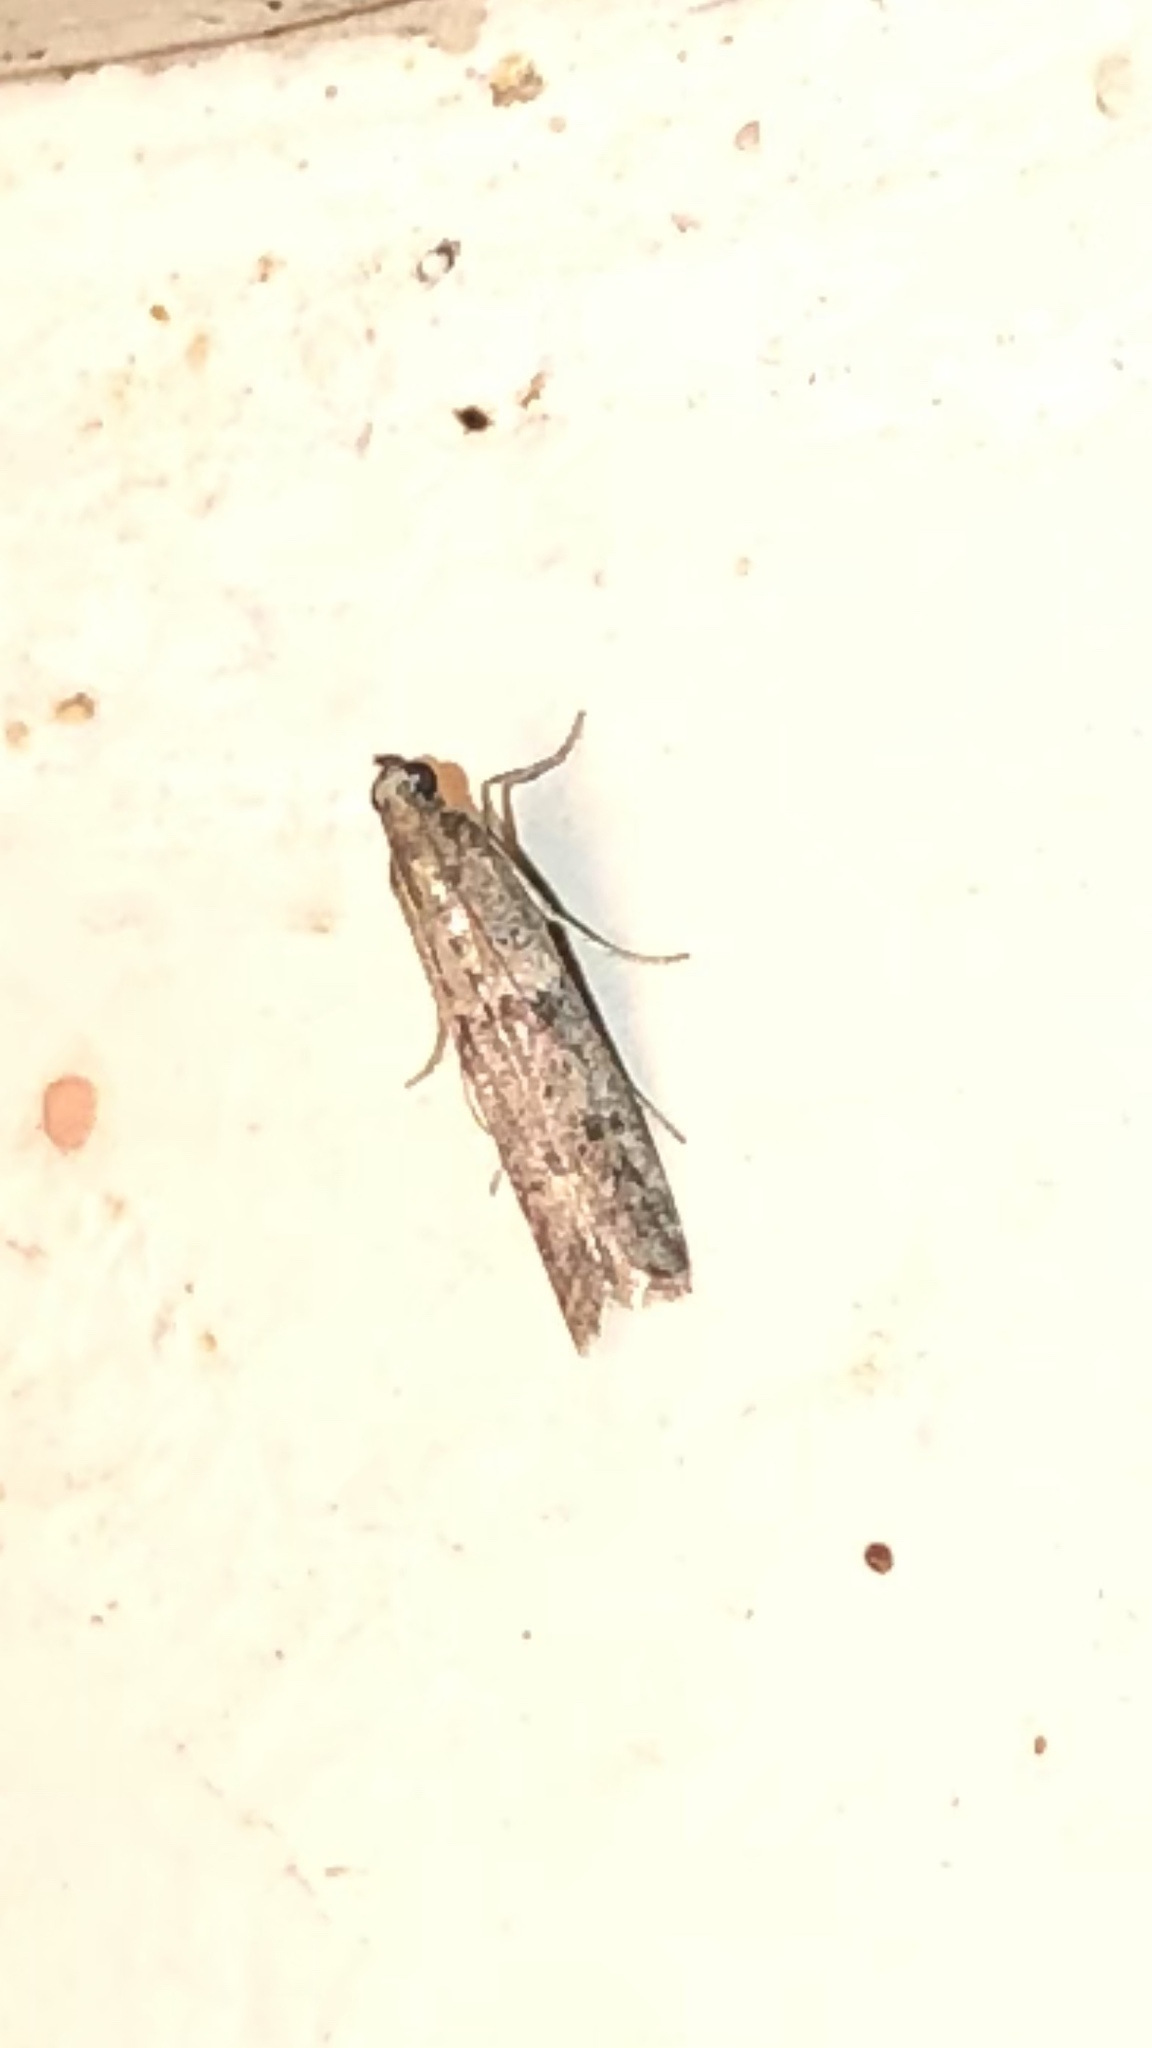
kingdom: Animalia
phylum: Arthropoda
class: Insecta
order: Lepidoptera
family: Pyralidae
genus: Ephestiodes
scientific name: Ephestiodes gilvescentella
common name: Moth
